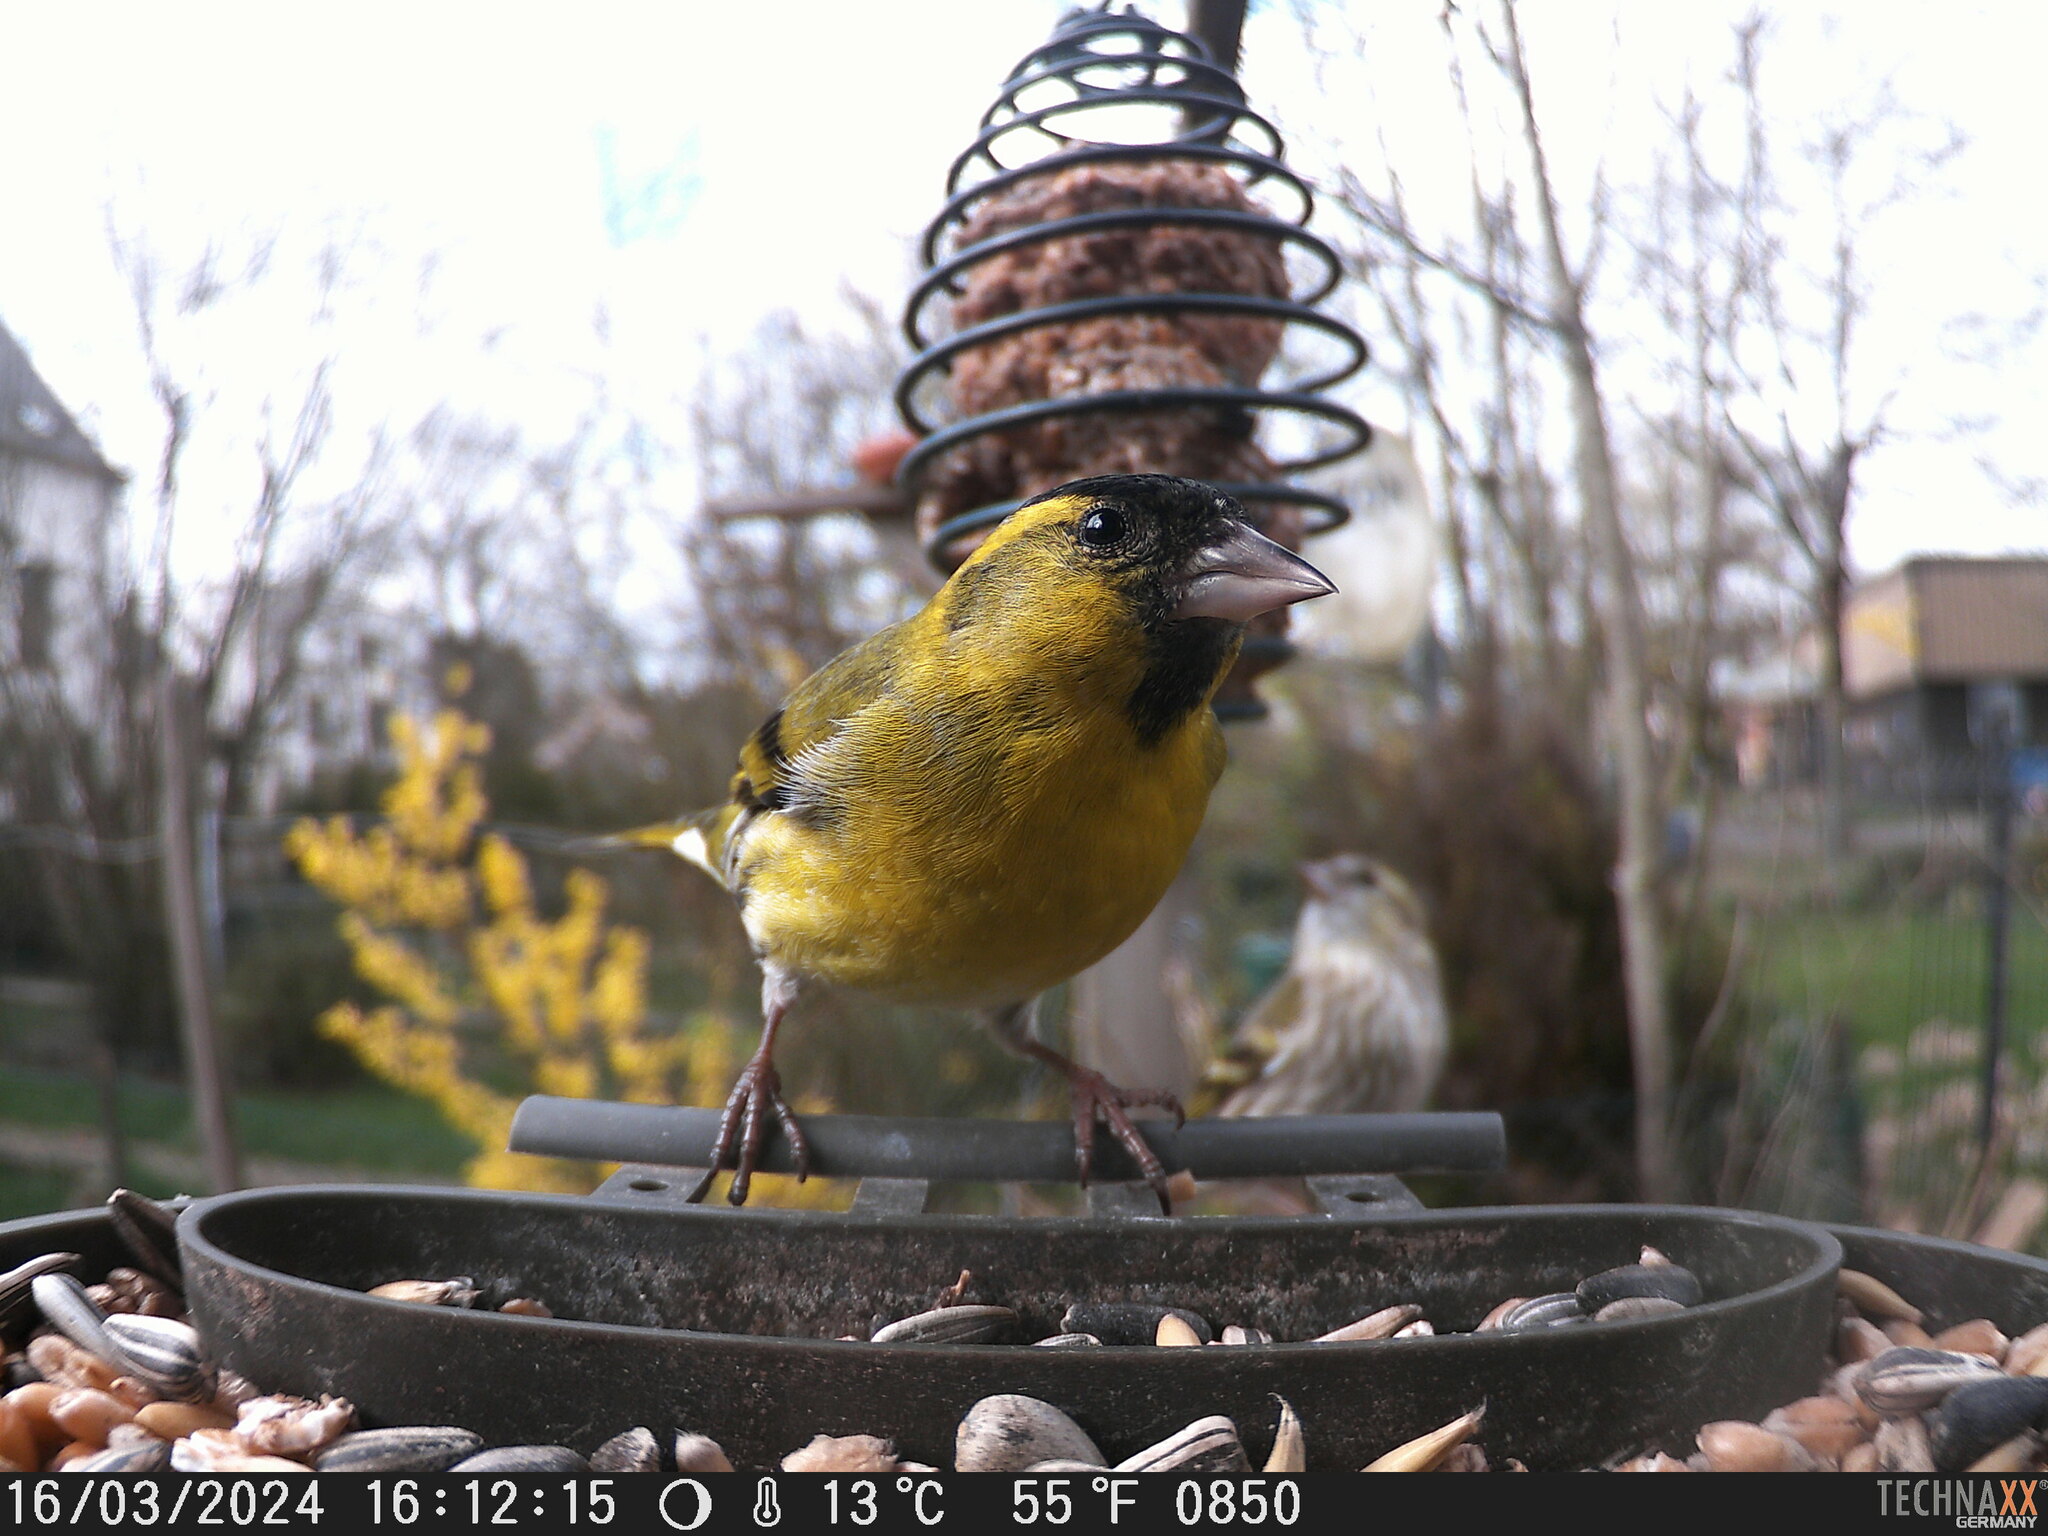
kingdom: Animalia
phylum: Chordata
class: Aves
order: Passeriformes
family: Fringillidae
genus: Spinus
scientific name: Spinus spinus
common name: Eurasian siskin
